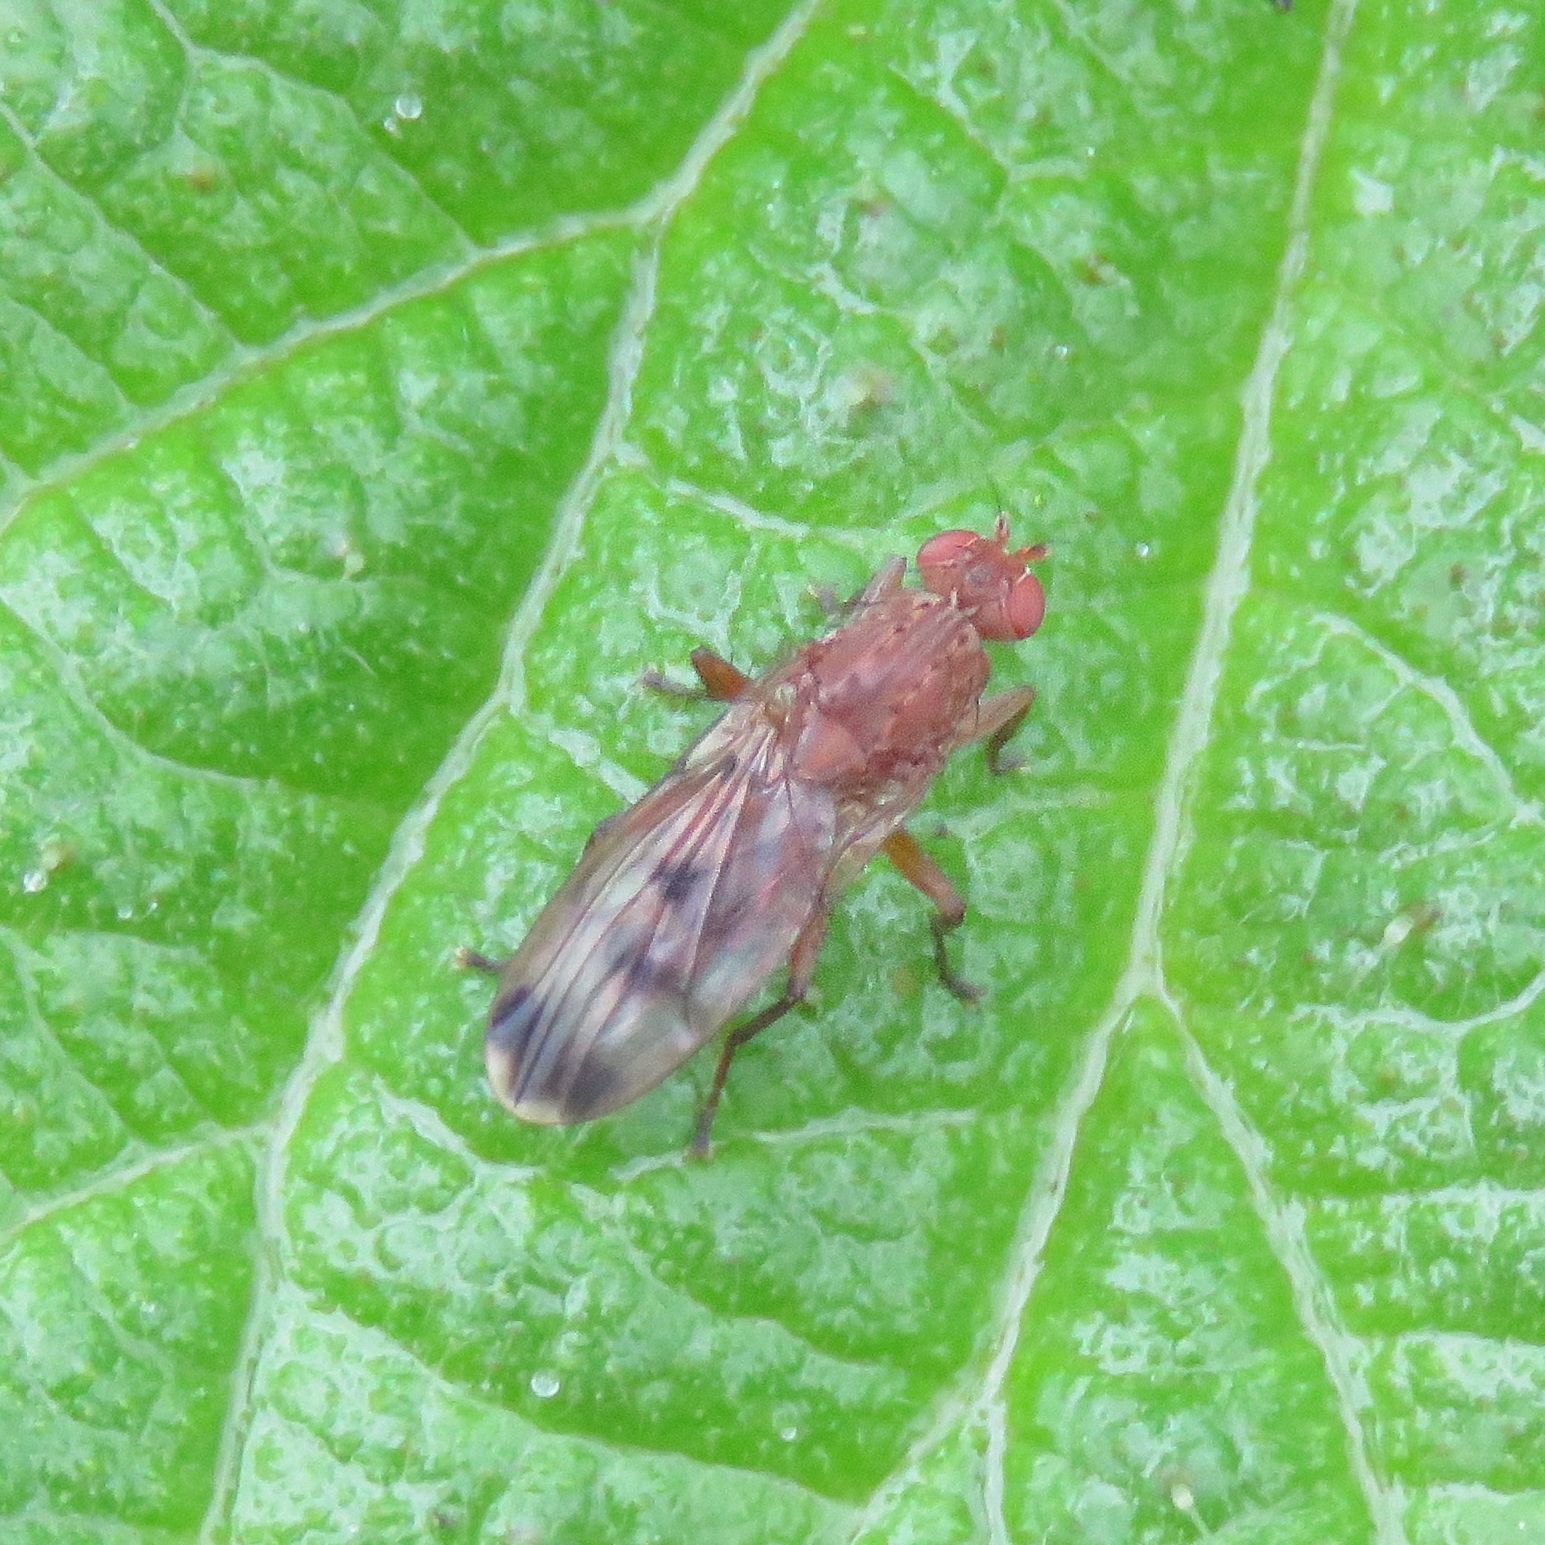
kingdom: Animalia
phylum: Arthropoda
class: Insecta
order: Diptera
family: Heleomyzidae
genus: Suillia
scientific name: Suillia variegata
